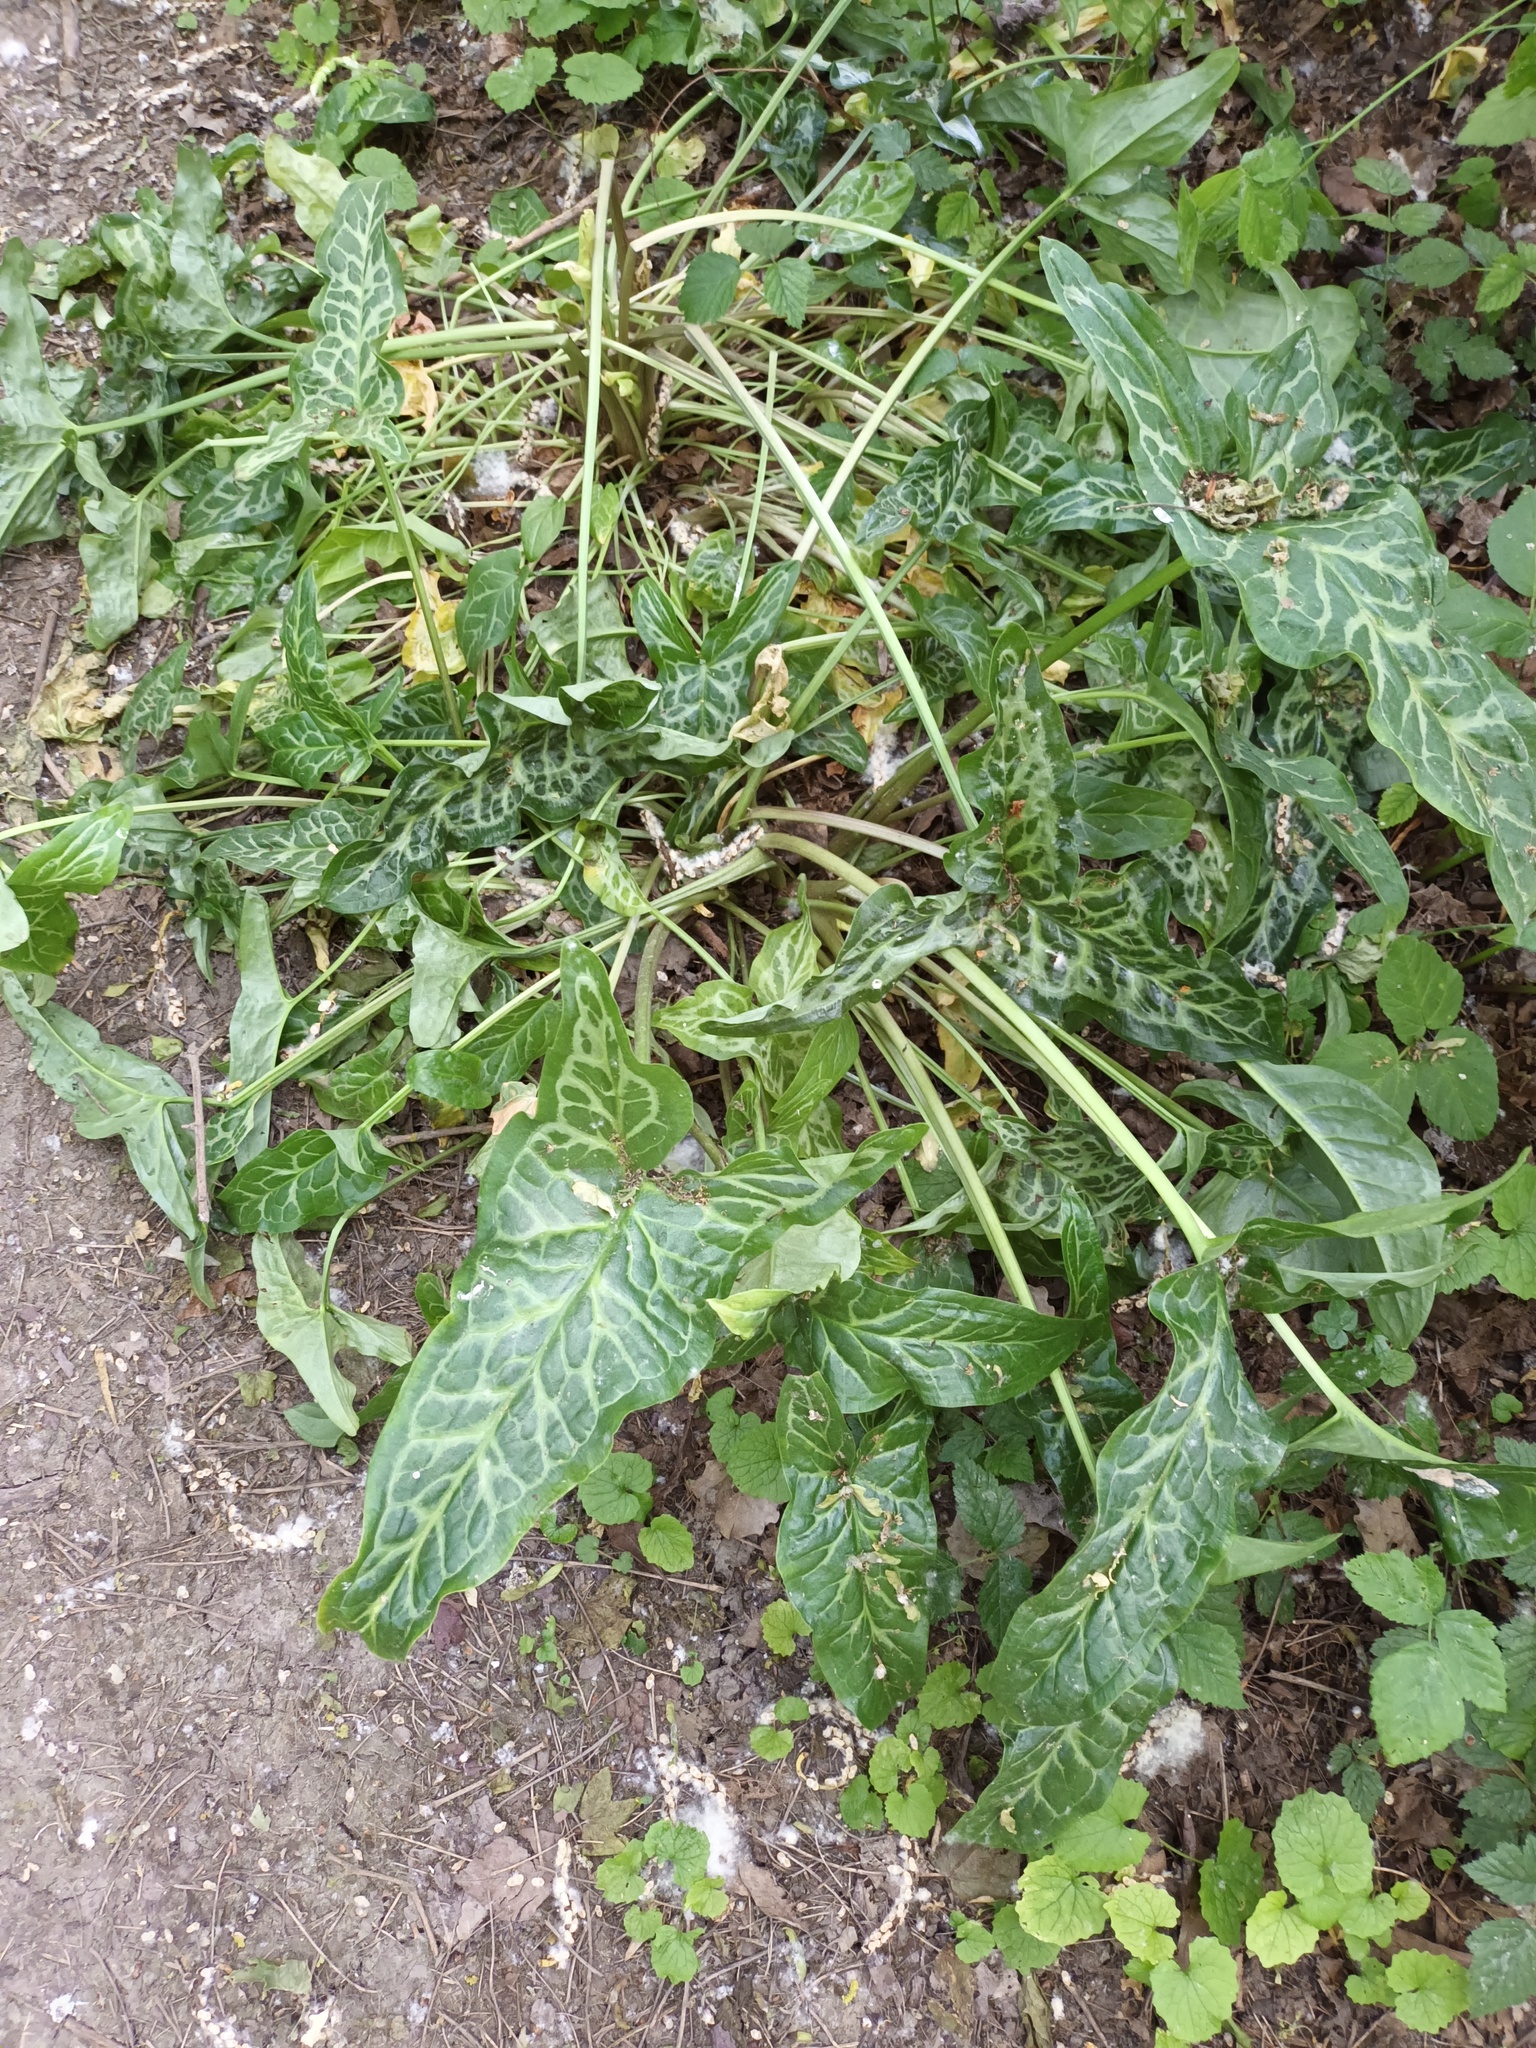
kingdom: Plantae
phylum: Tracheophyta
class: Liliopsida
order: Alismatales
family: Araceae
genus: Arum
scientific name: Arum italicum
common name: Italian lords-and-ladies
